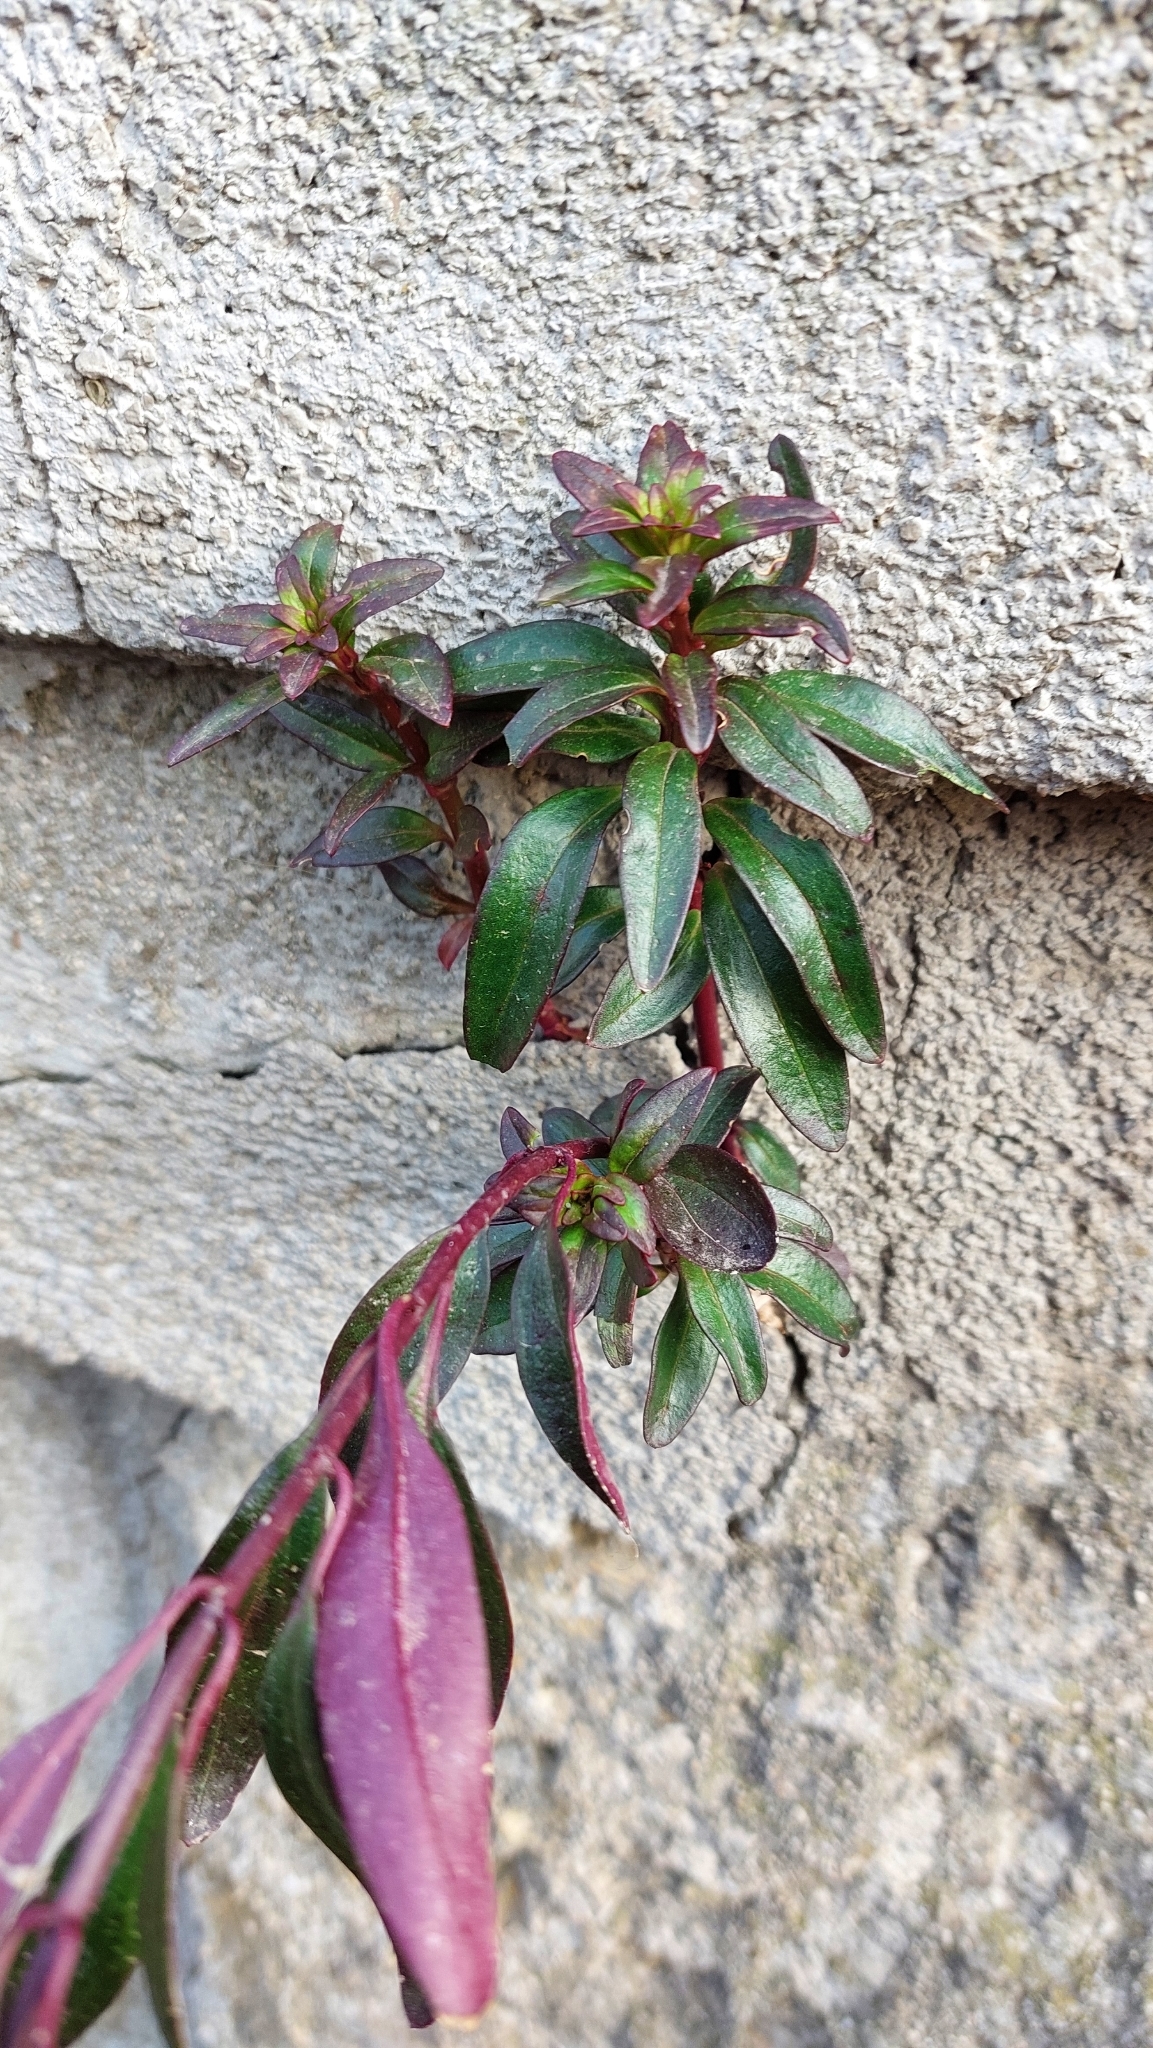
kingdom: Plantae
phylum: Tracheophyta
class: Magnoliopsida
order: Lamiales
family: Plantaginaceae
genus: Antirrhinum
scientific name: Antirrhinum majus
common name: Snapdragon
